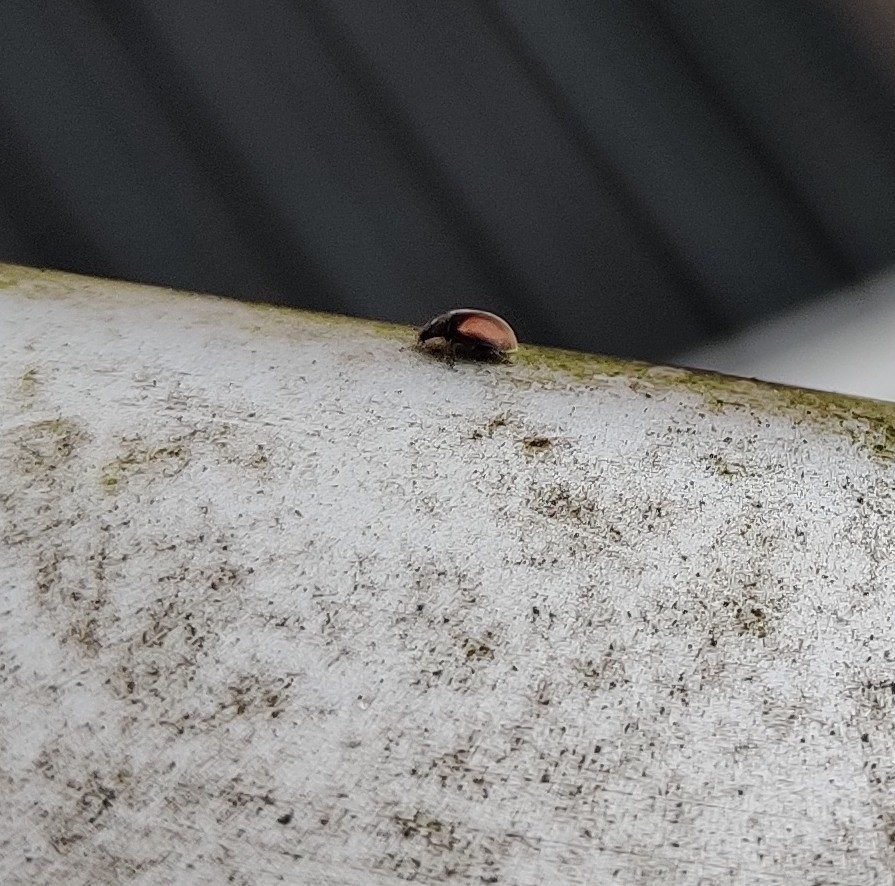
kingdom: Animalia
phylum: Arthropoda
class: Insecta
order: Coleoptera
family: Coccinellidae
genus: Scymnus
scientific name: Scymnus suturalis
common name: Ladybird beetle
